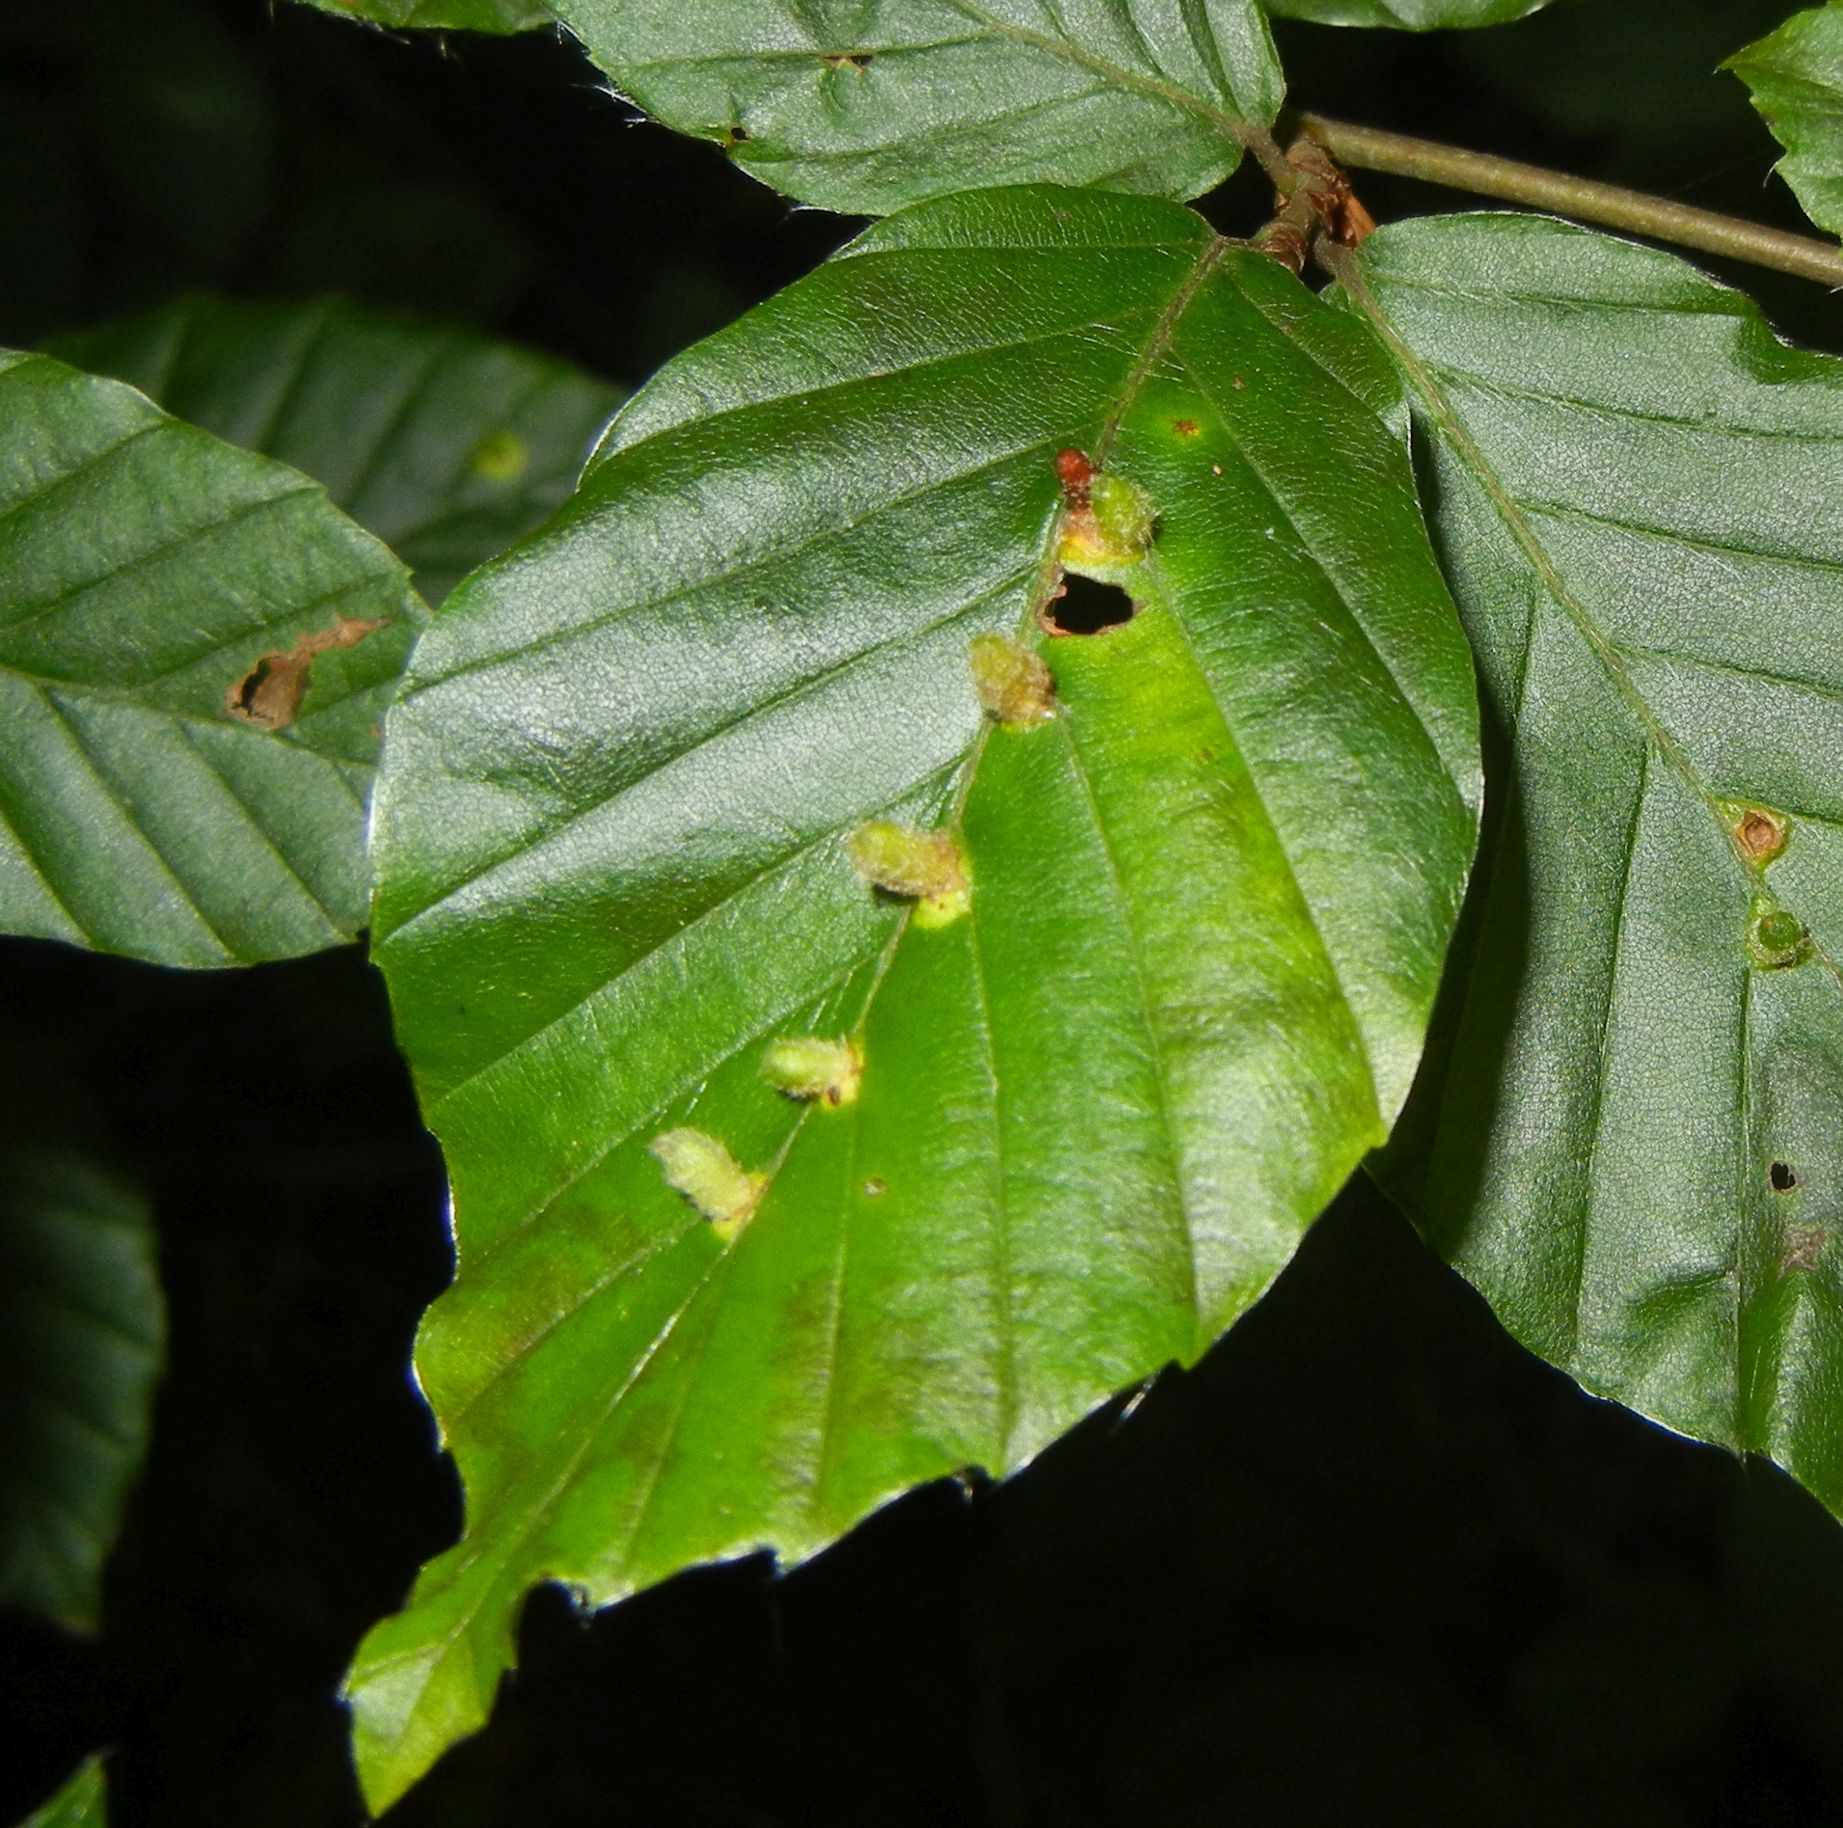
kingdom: Animalia
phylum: Arthropoda
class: Insecta
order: Diptera
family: Cecidomyiidae
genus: Hartigiola
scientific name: Hartigiola annulipes
